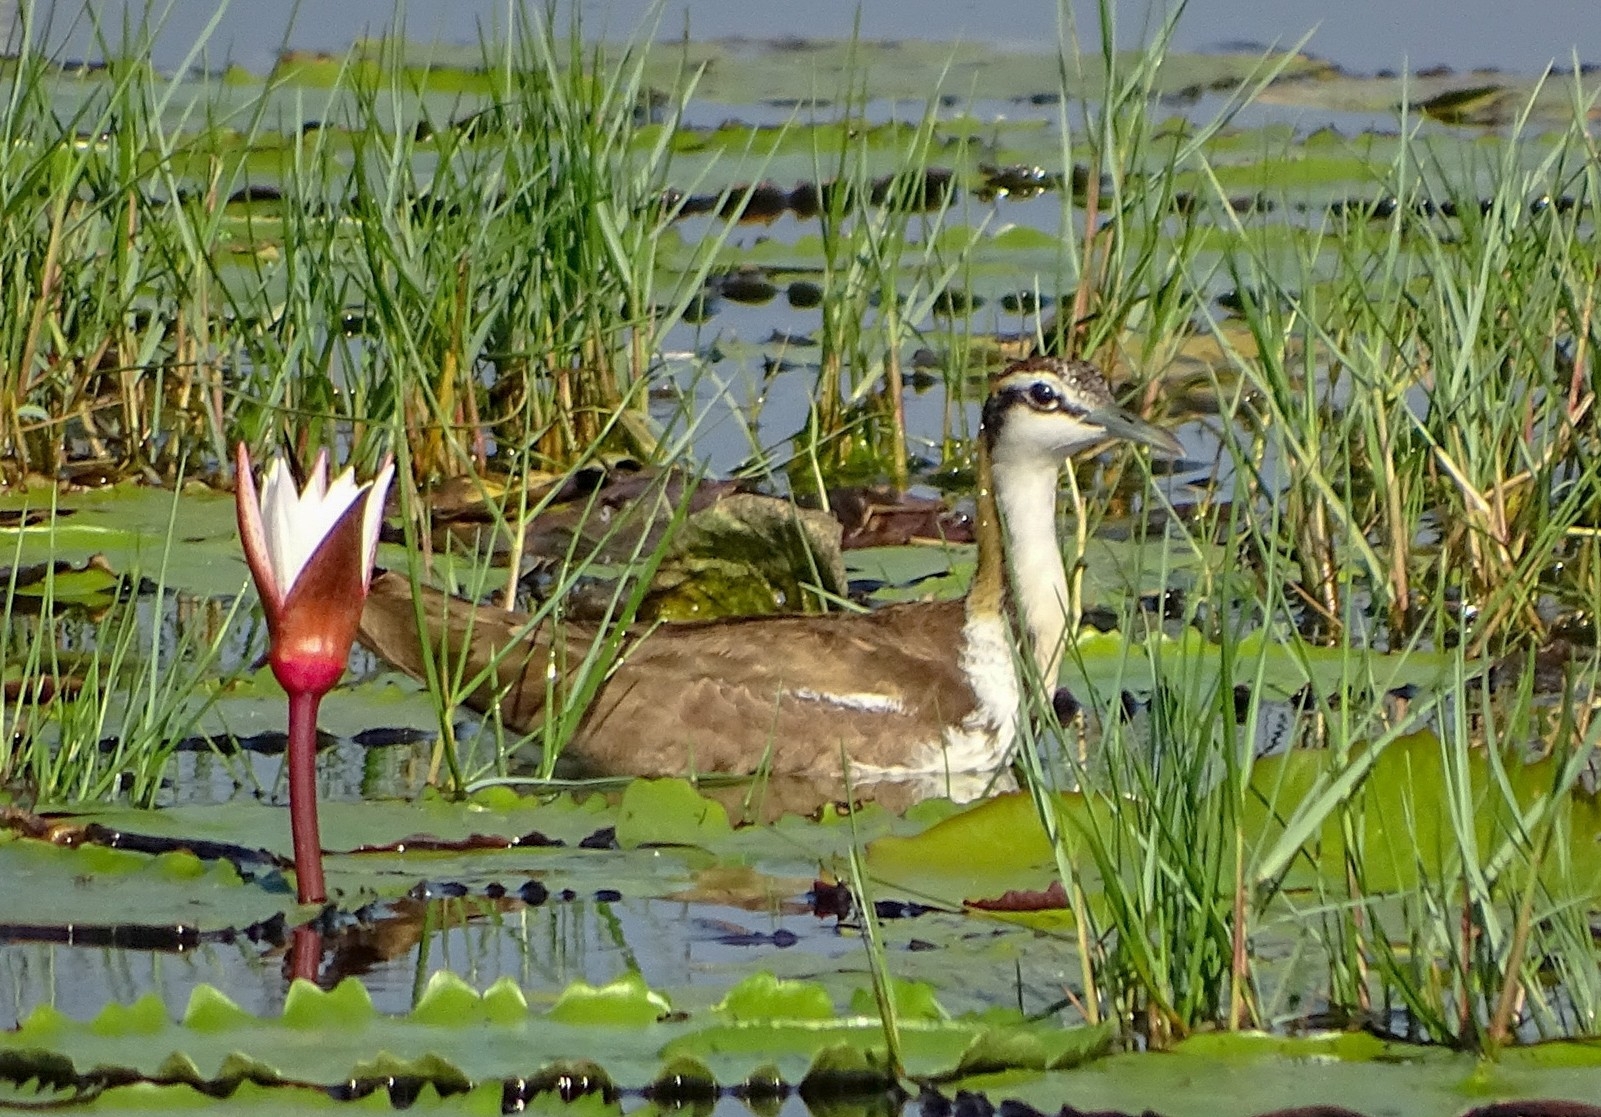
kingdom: Animalia
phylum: Chordata
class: Aves
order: Charadriiformes
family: Jacanidae
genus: Hydrophasianus
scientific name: Hydrophasianus chirurgus
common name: Pheasant-tailed jacana
